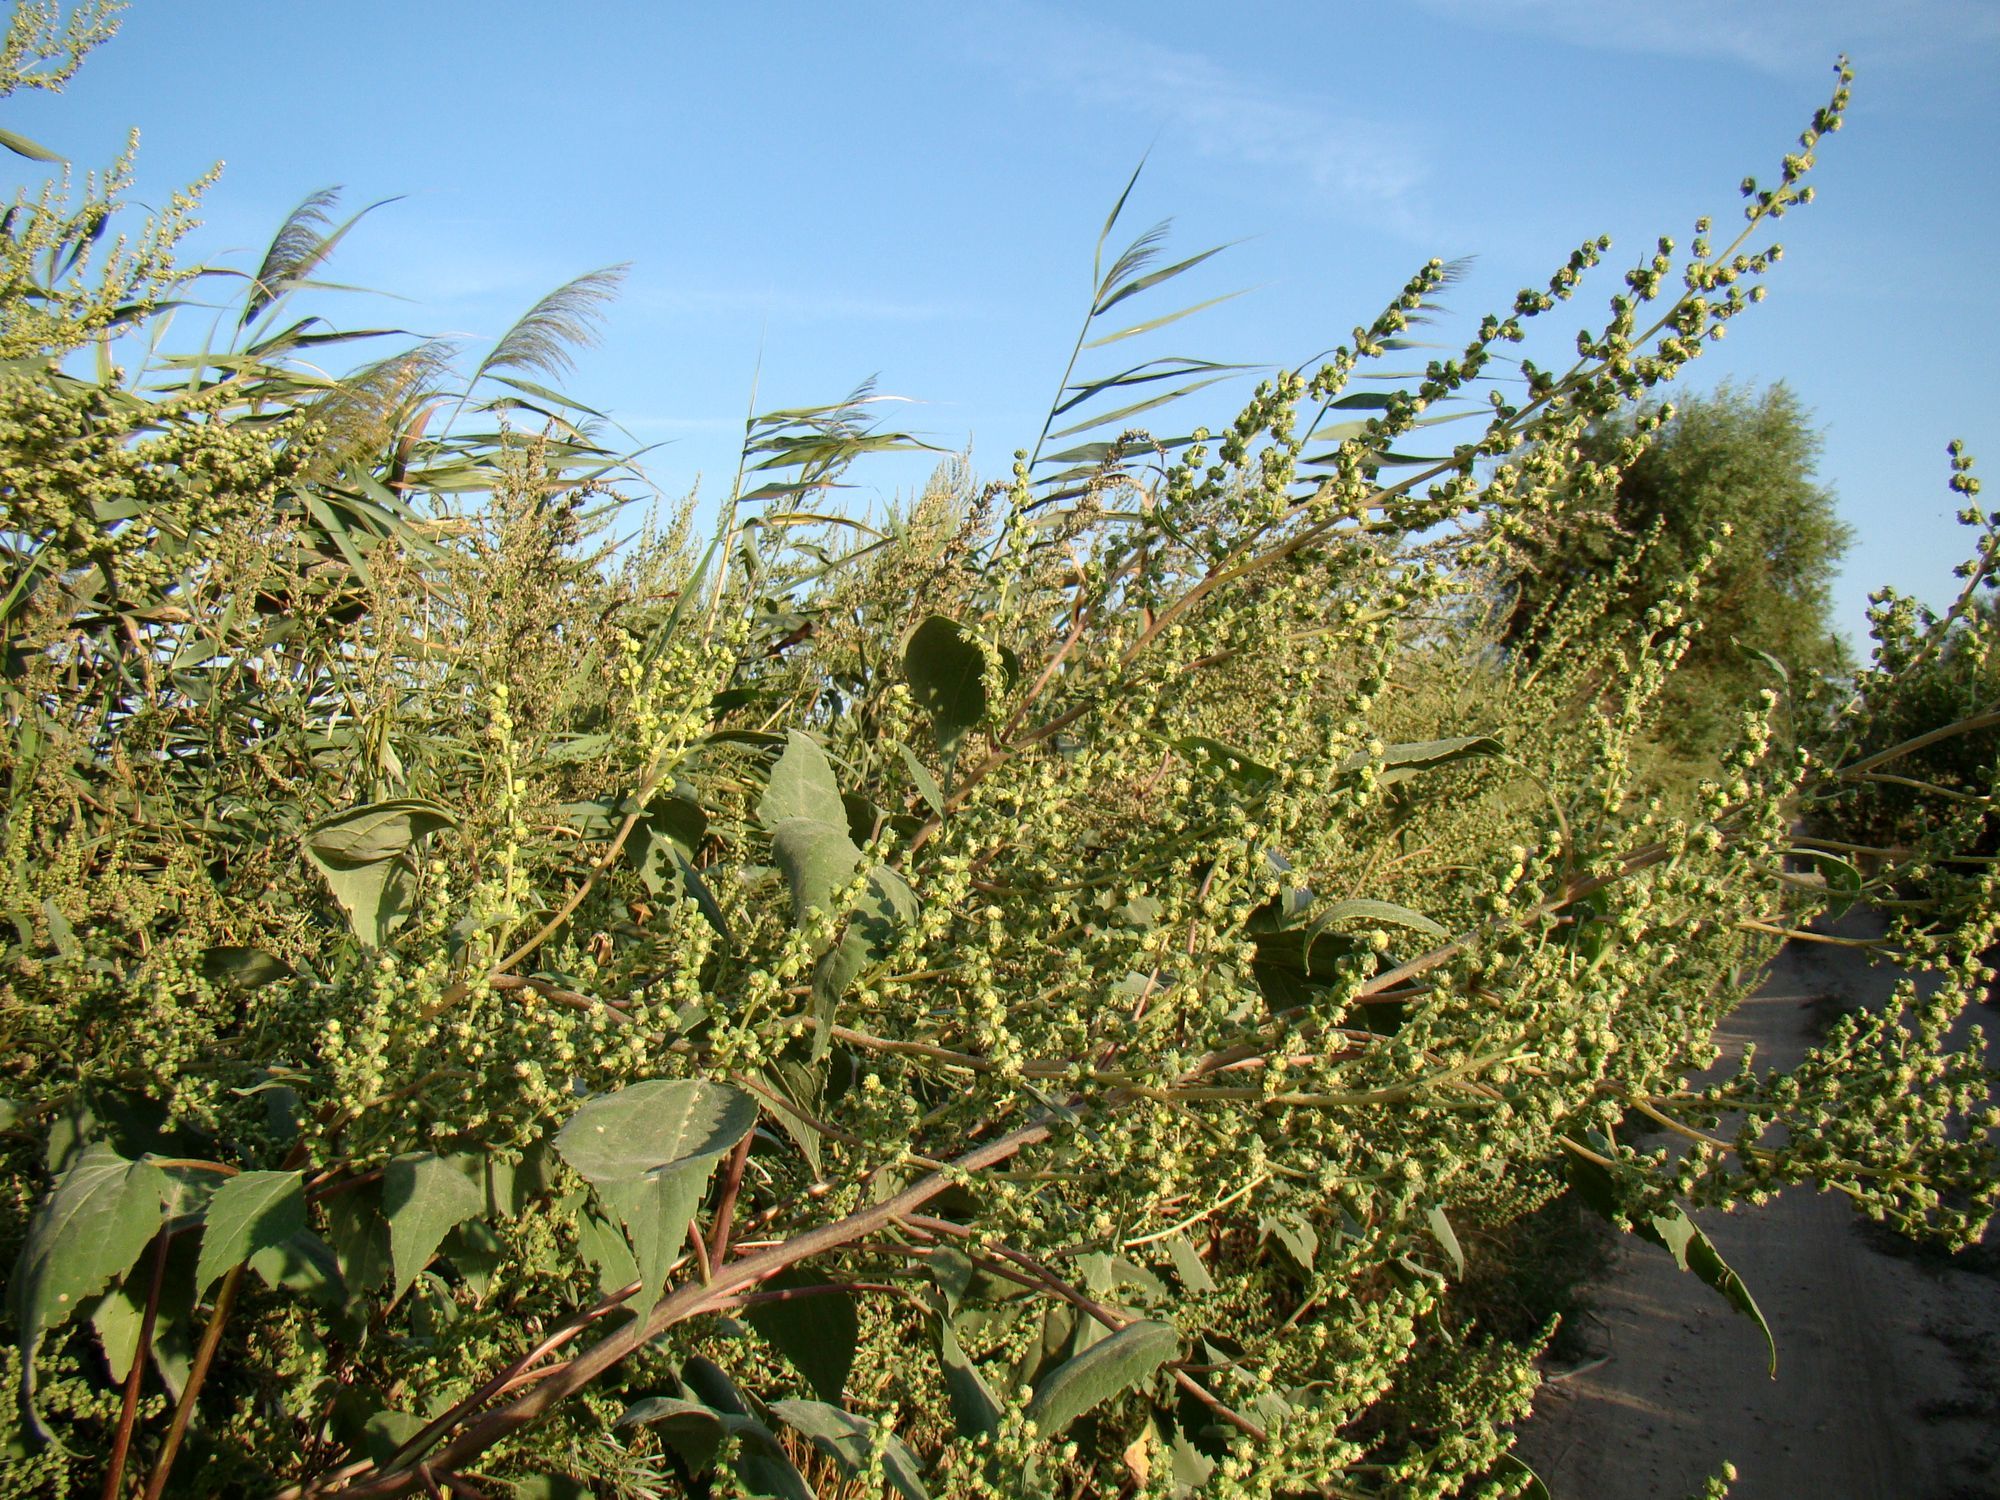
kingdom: Plantae
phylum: Tracheophyta
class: Magnoliopsida
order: Asterales
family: Asteraceae
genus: Cyclachaena
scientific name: Cyclachaena xanthiifolia
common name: Giant sumpweed
